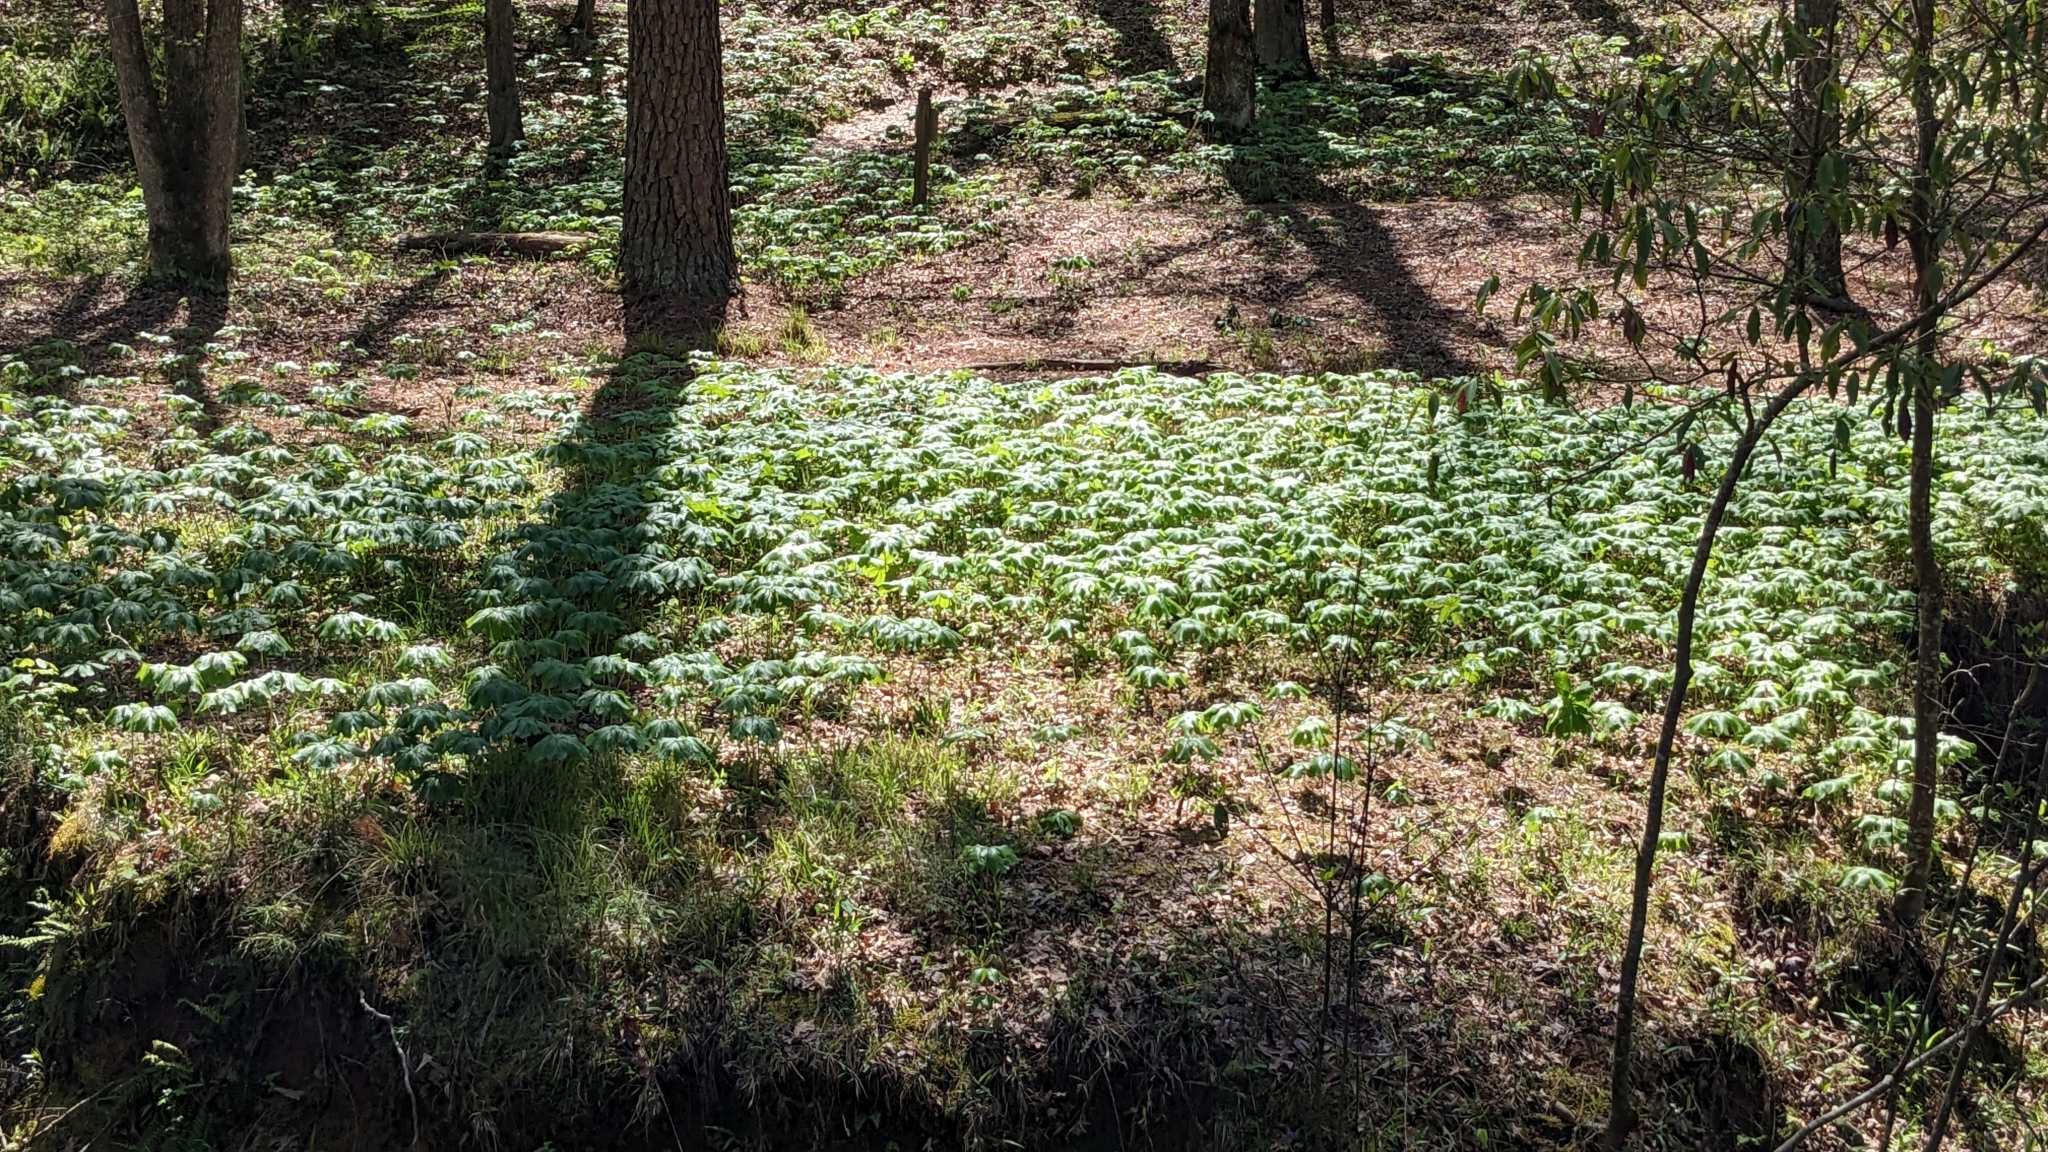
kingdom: Plantae
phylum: Tracheophyta
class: Magnoliopsida
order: Ranunculales
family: Berberidaceae
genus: Podophyllum
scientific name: Podophyllum peltatum
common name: Wild mandrake
